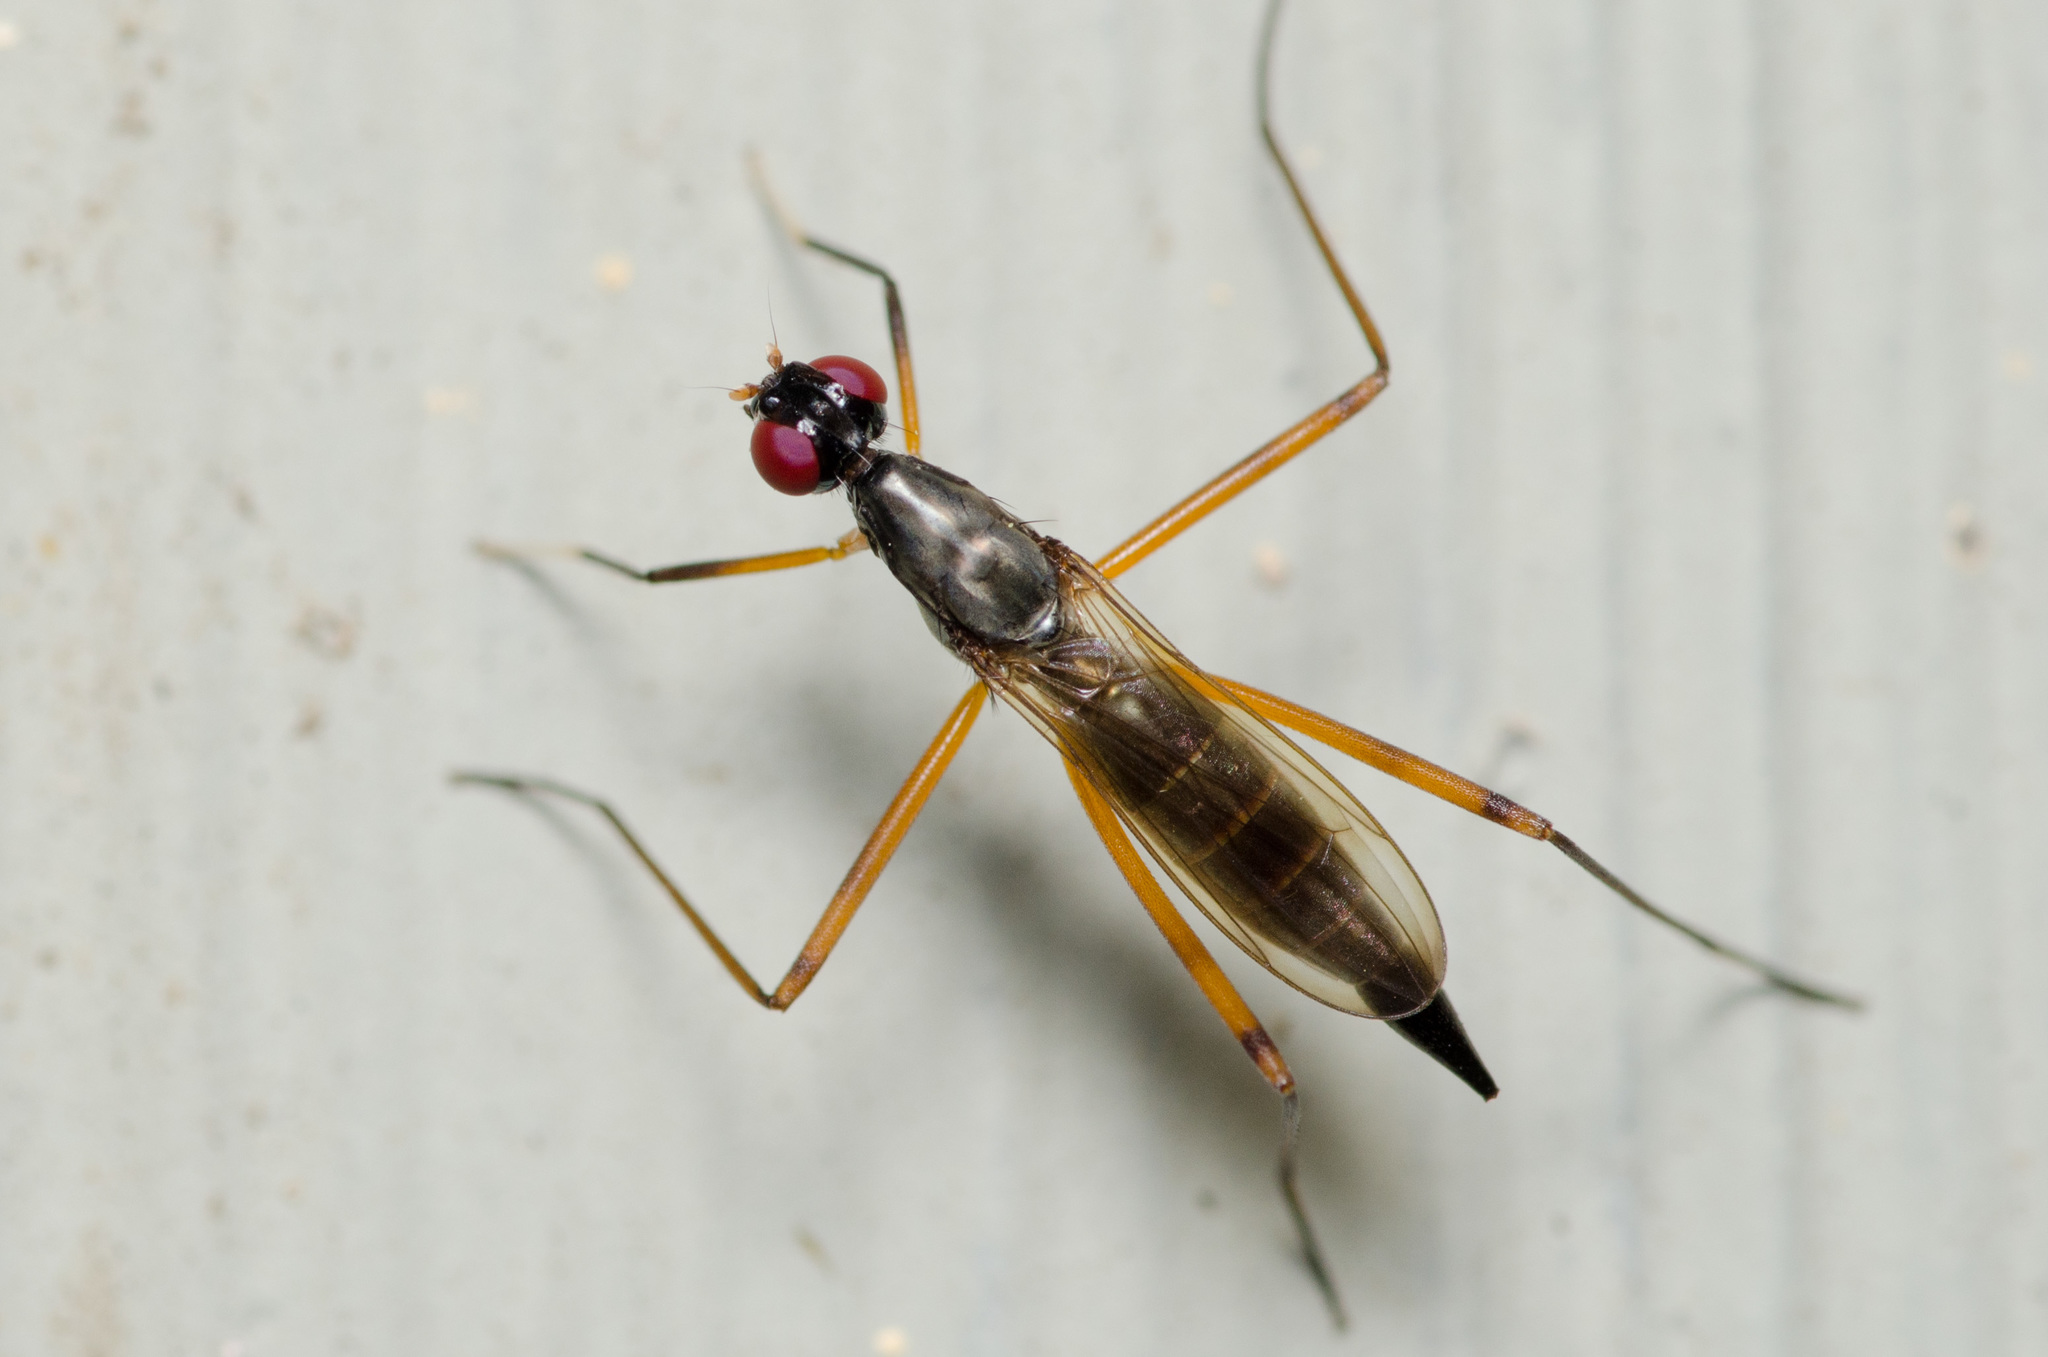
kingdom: Animalia
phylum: Arthropoda
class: Insecta
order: Diptera
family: Micropezidae
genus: Rainieria
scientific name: Rainieria antennaepes
